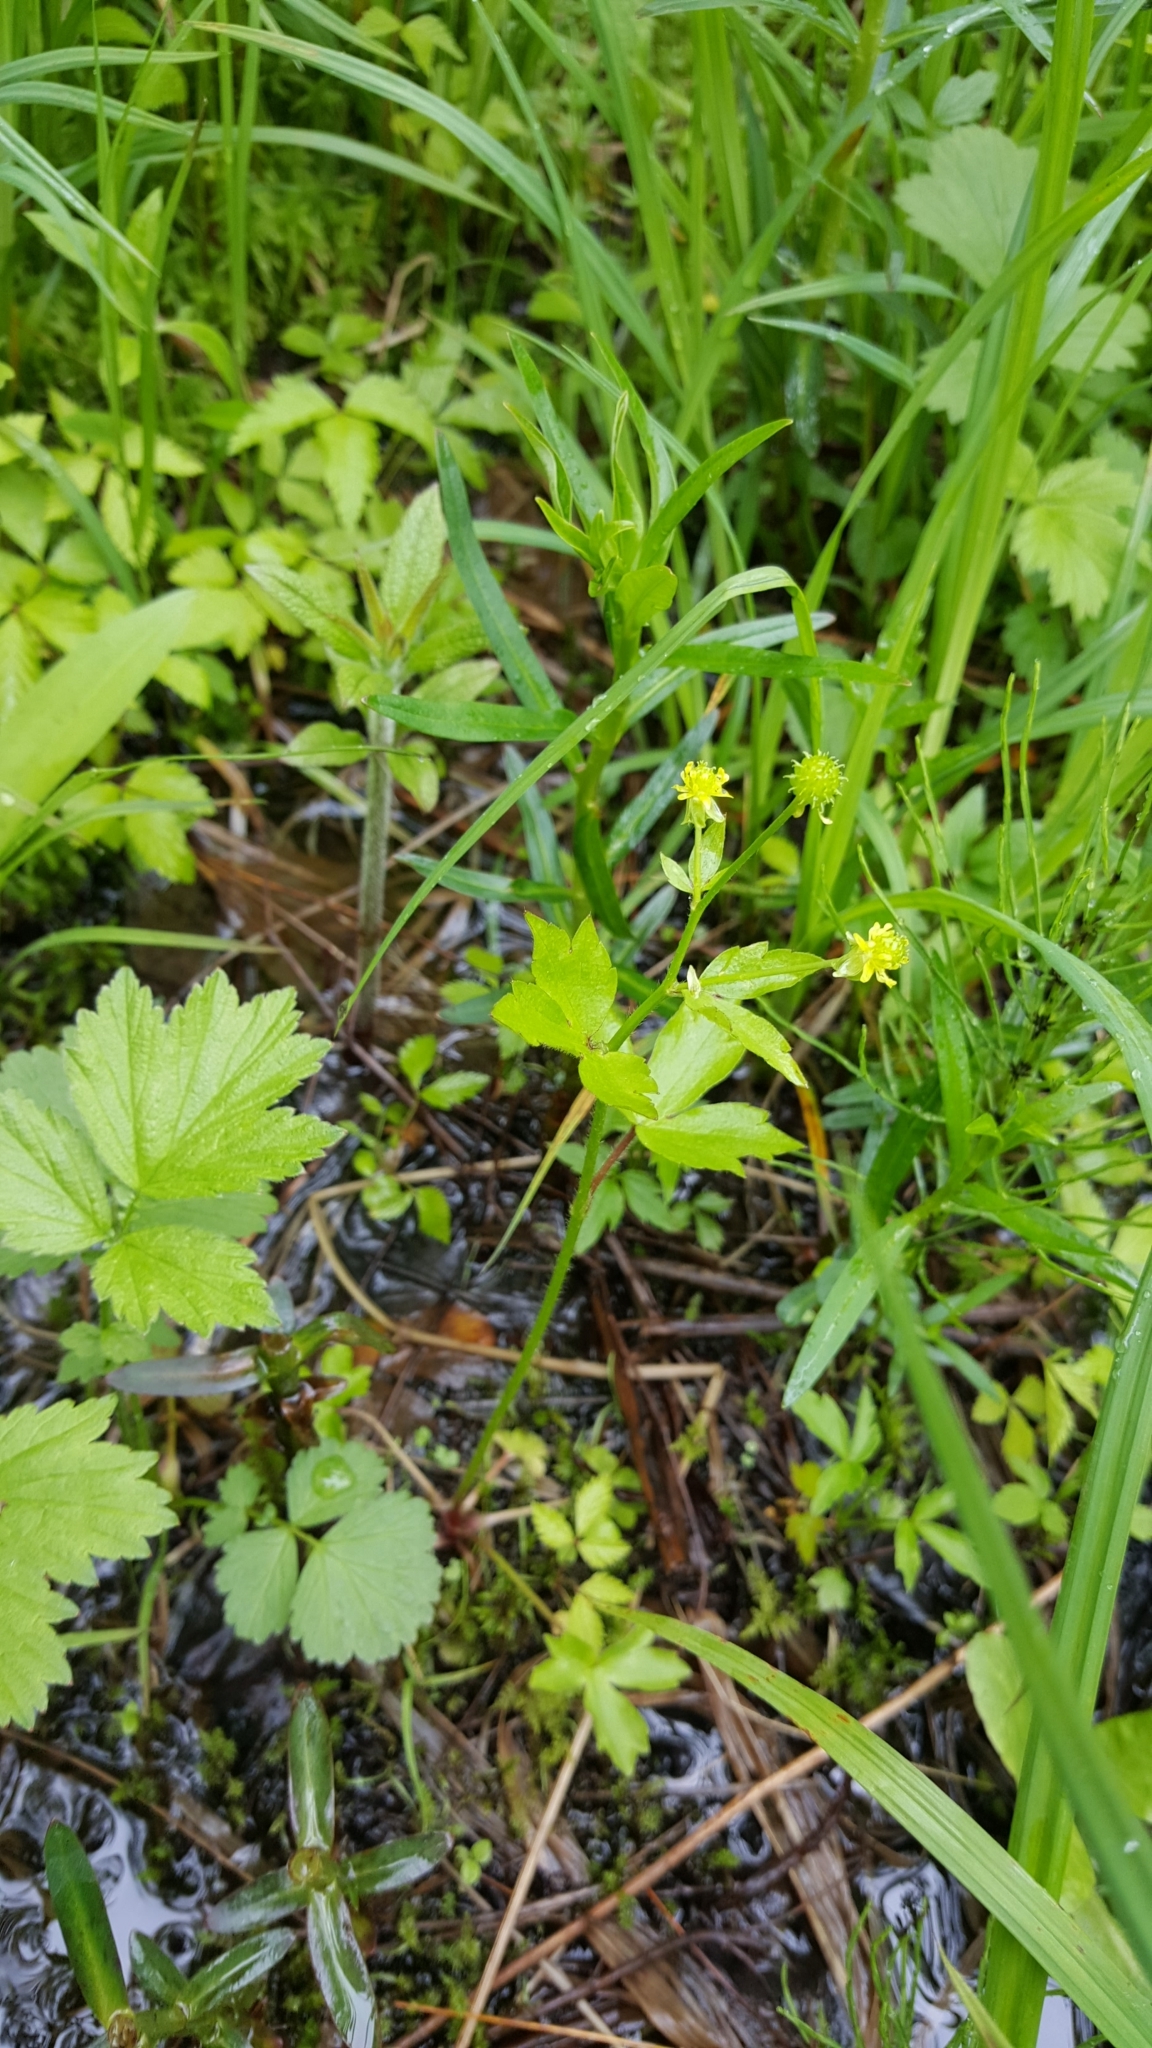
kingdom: Plantae
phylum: Tracheophyta
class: Magnoliopsida
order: Ranunculales
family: Ranunculaceae
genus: Ranunculus
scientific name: Ranunculus recurvatus
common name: Blisterwort
